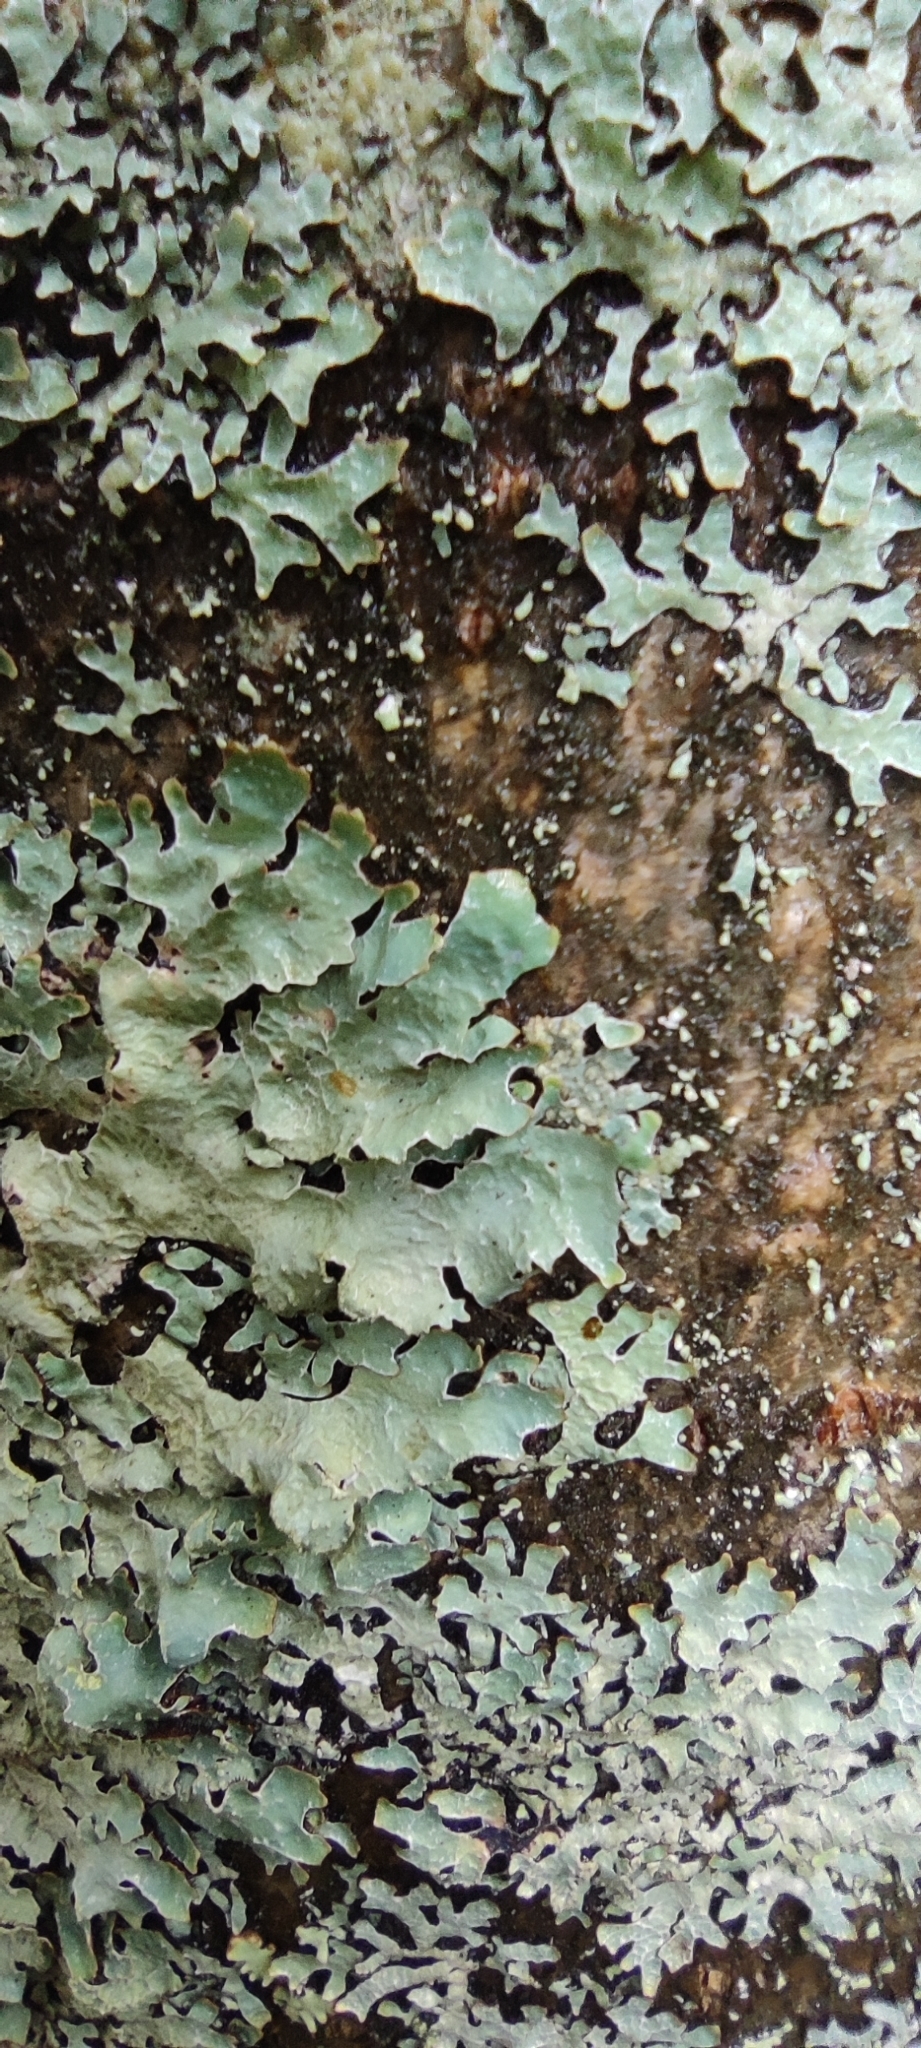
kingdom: Fungi
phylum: Ascomycota
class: Lecanoromycetes
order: Lecanorales
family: Parmeliaceae
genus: Parmelia
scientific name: Parmelia sulcata
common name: Netted shield lichen
